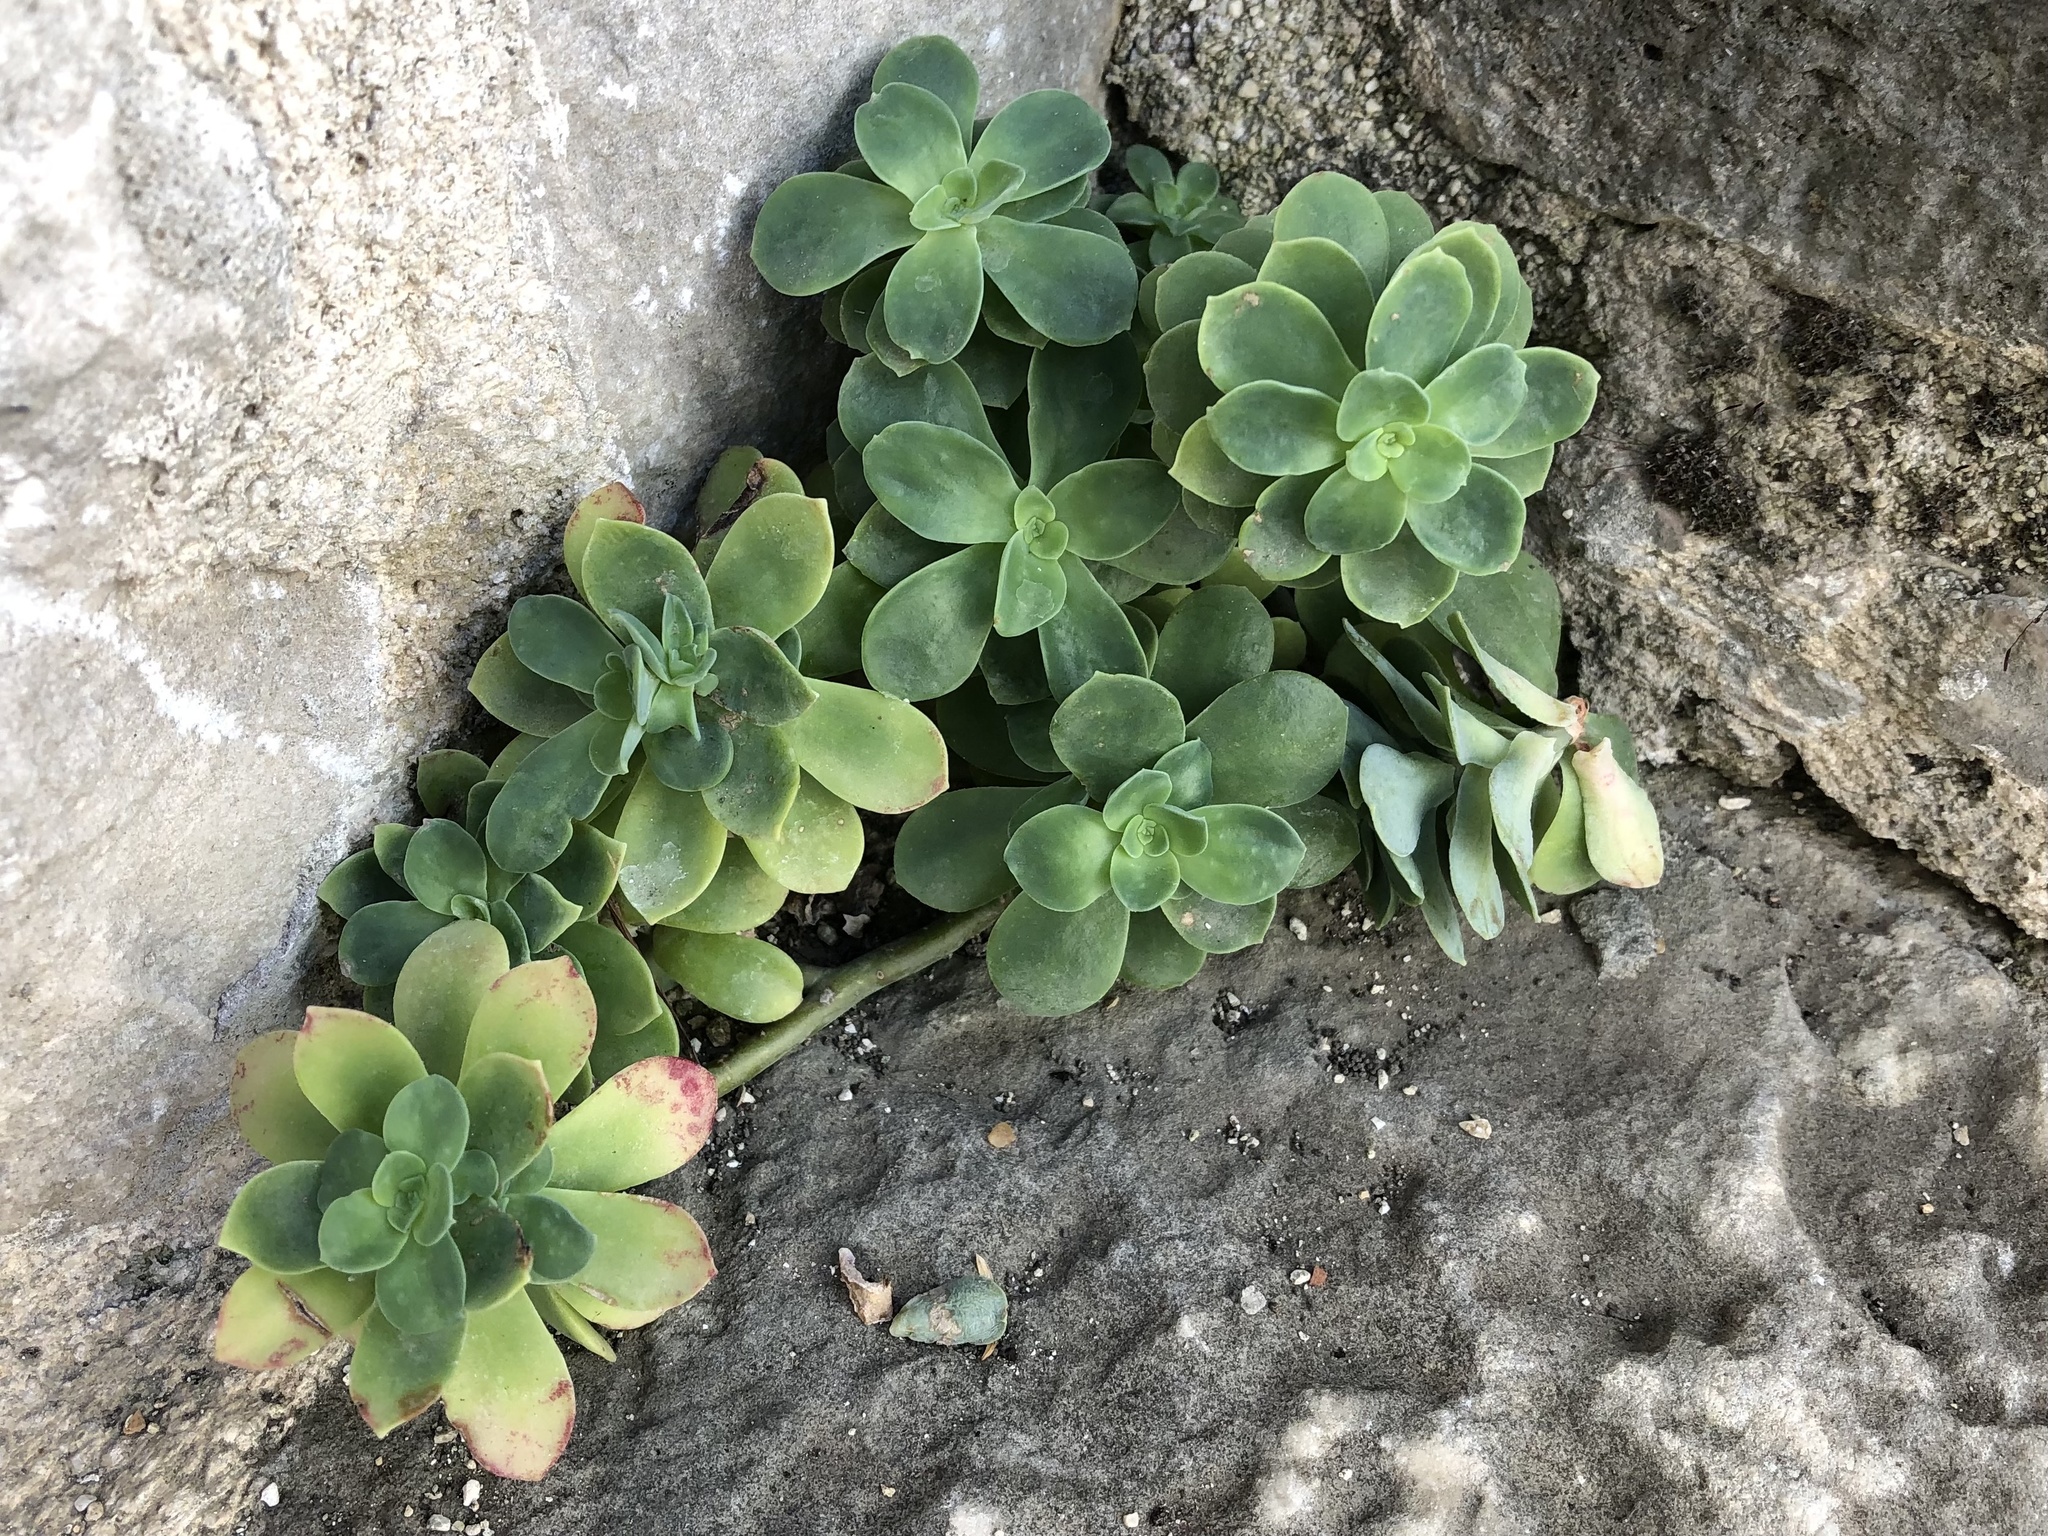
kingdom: Plantae
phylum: Tracheophyta
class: Magnoliopsida
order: Saxifragales
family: Crassulaceae
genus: Sedum
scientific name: Sedum palmeri
